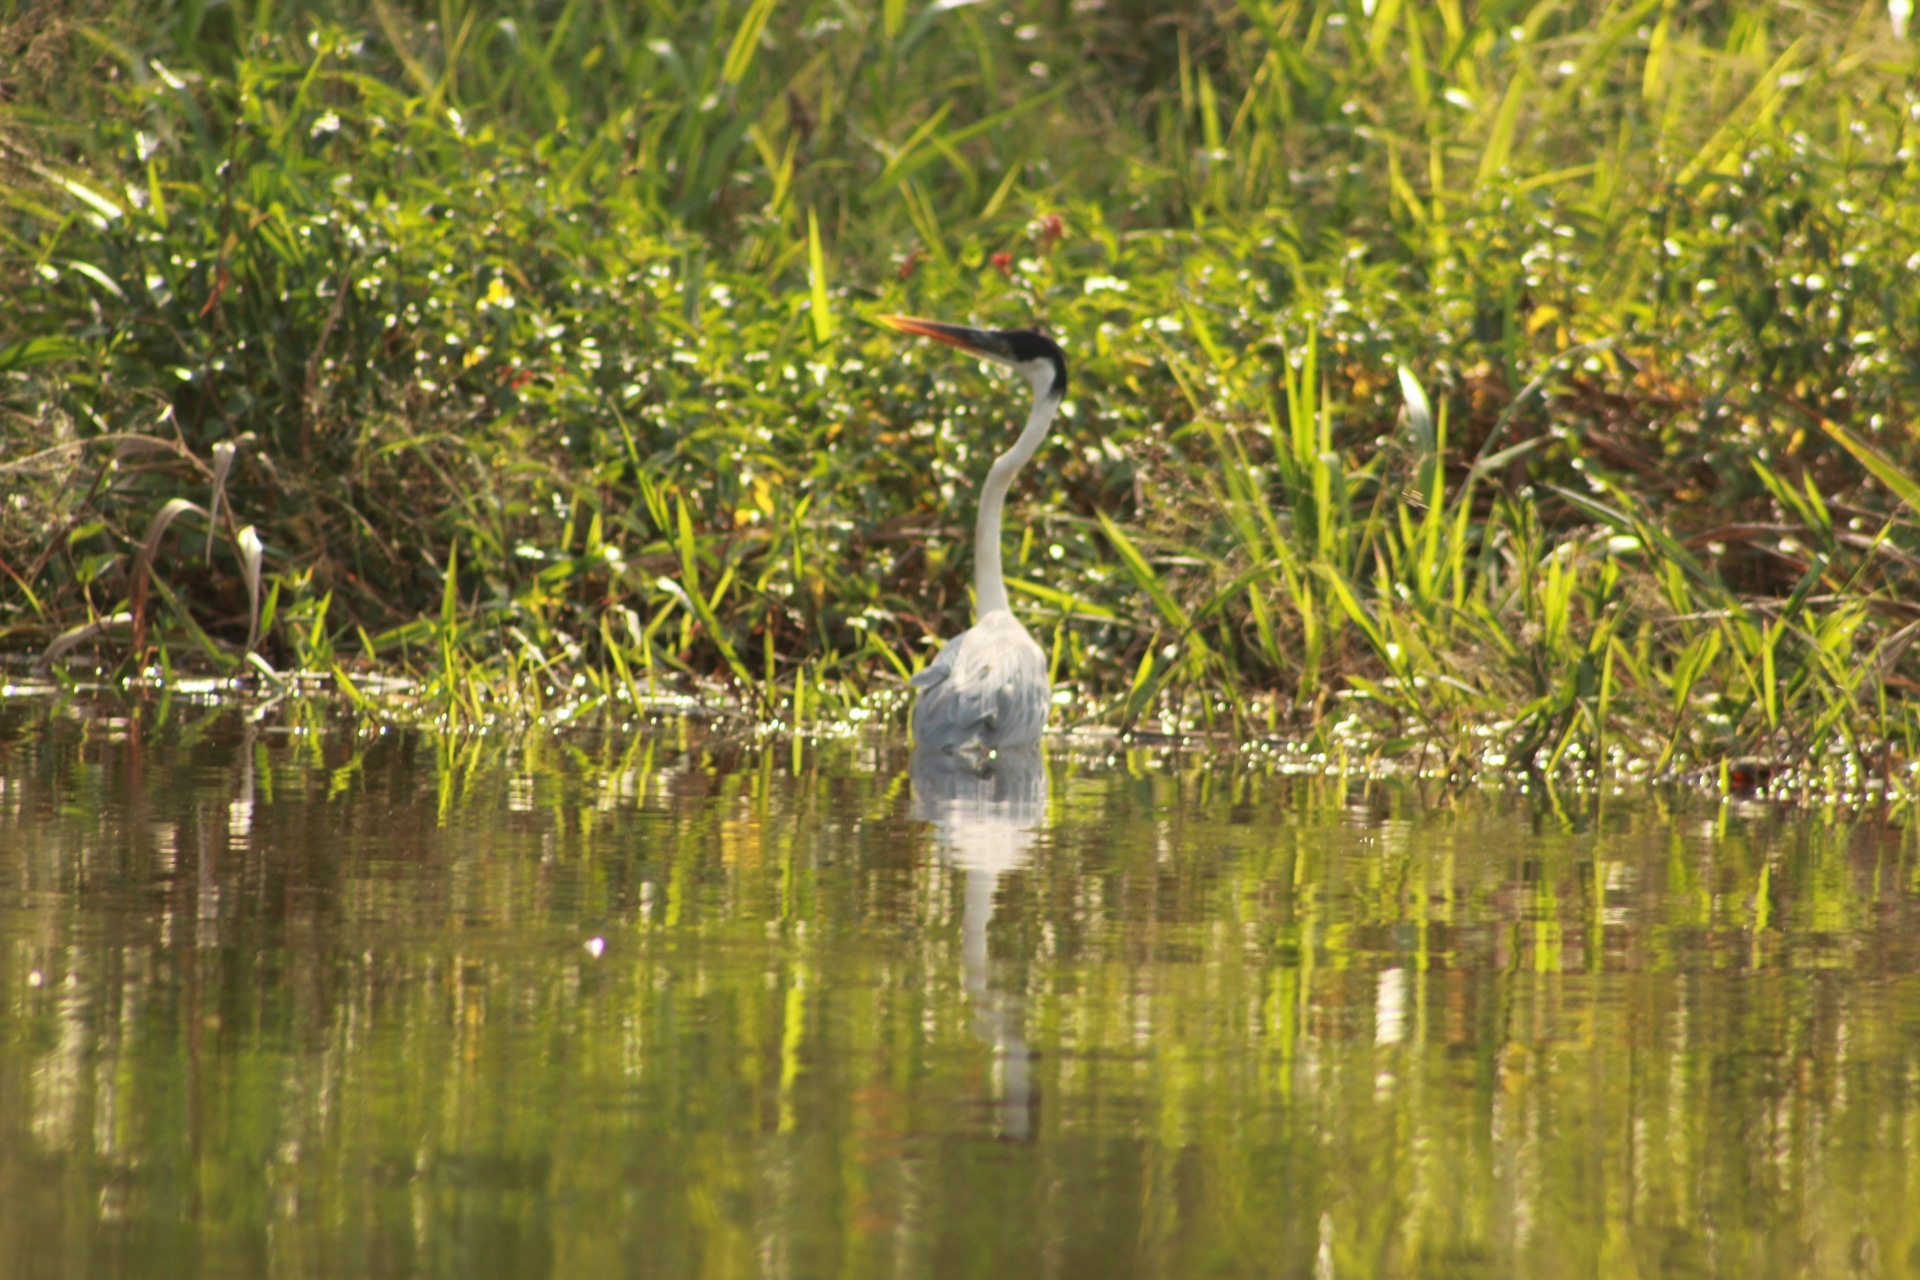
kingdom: Animalia
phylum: Chordata
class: Aves
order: Pelecaniformes
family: Ardeidae
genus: Ardea
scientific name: Ardea cocoi
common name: Cocoi heron
